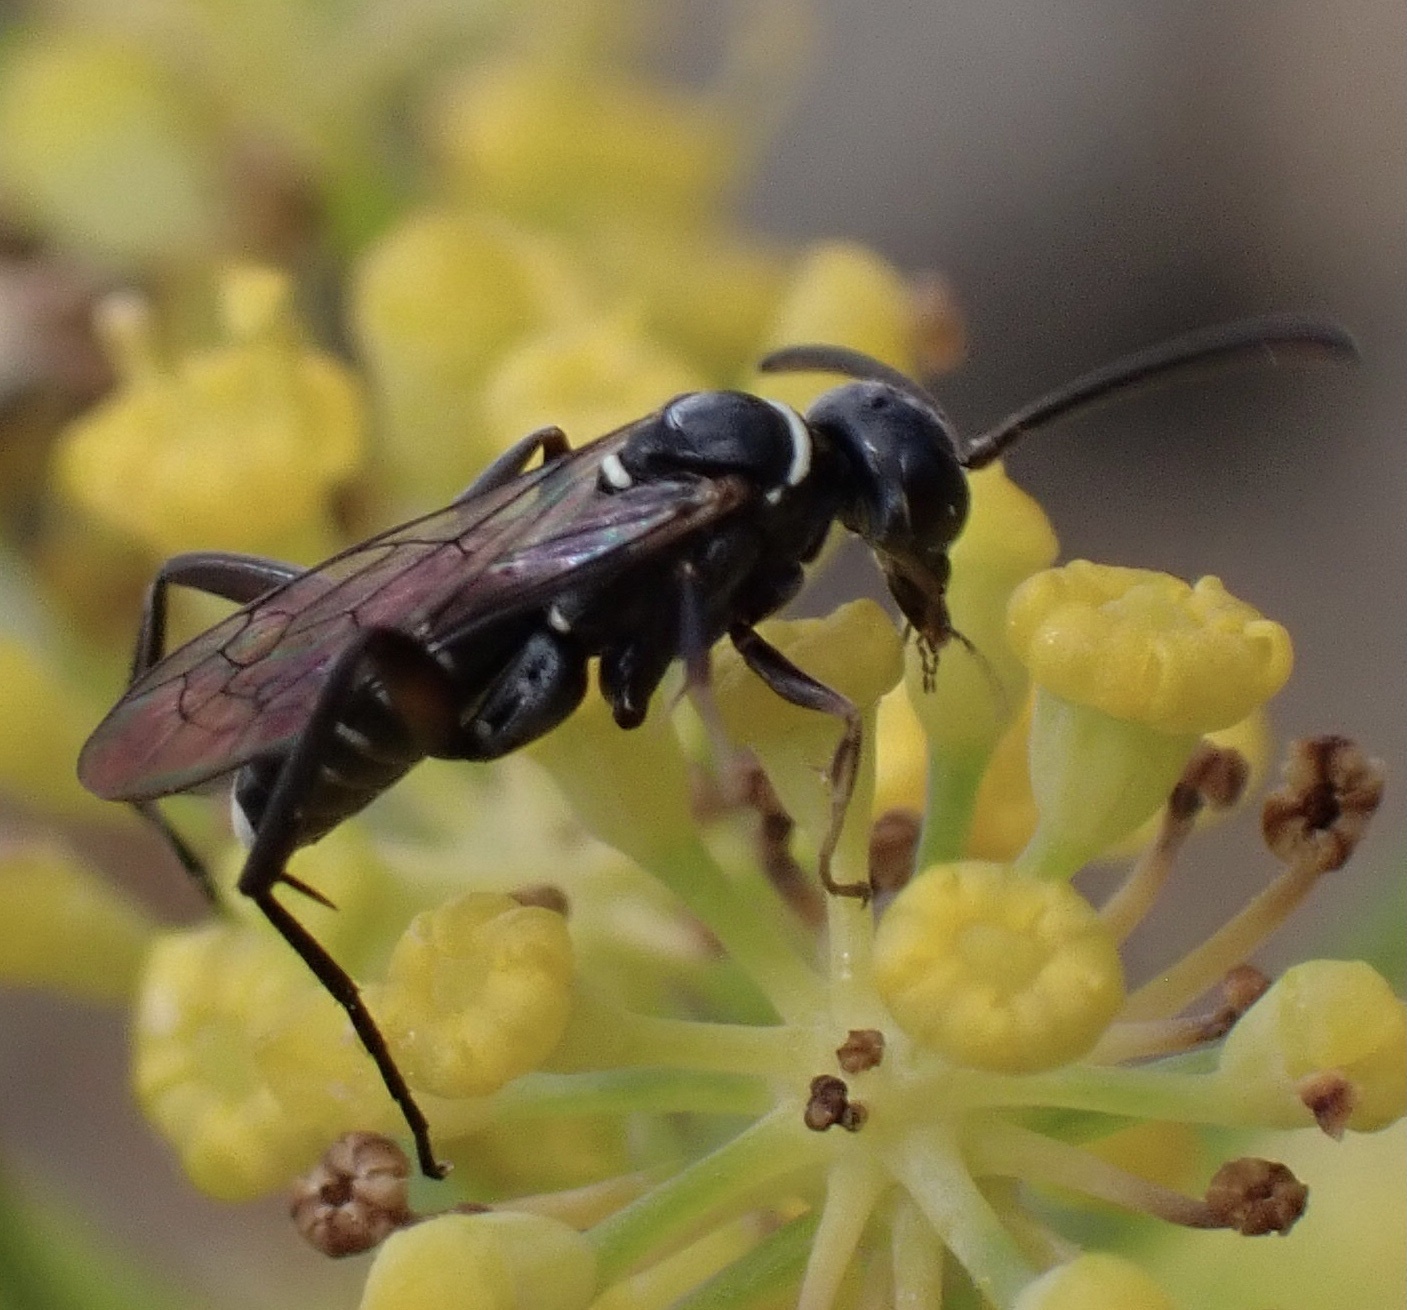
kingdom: Animalia
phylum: Arthropoda
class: Insecta
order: Hymenoptera
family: Pompilidae
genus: Ceropales
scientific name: Ceropales helvetica
